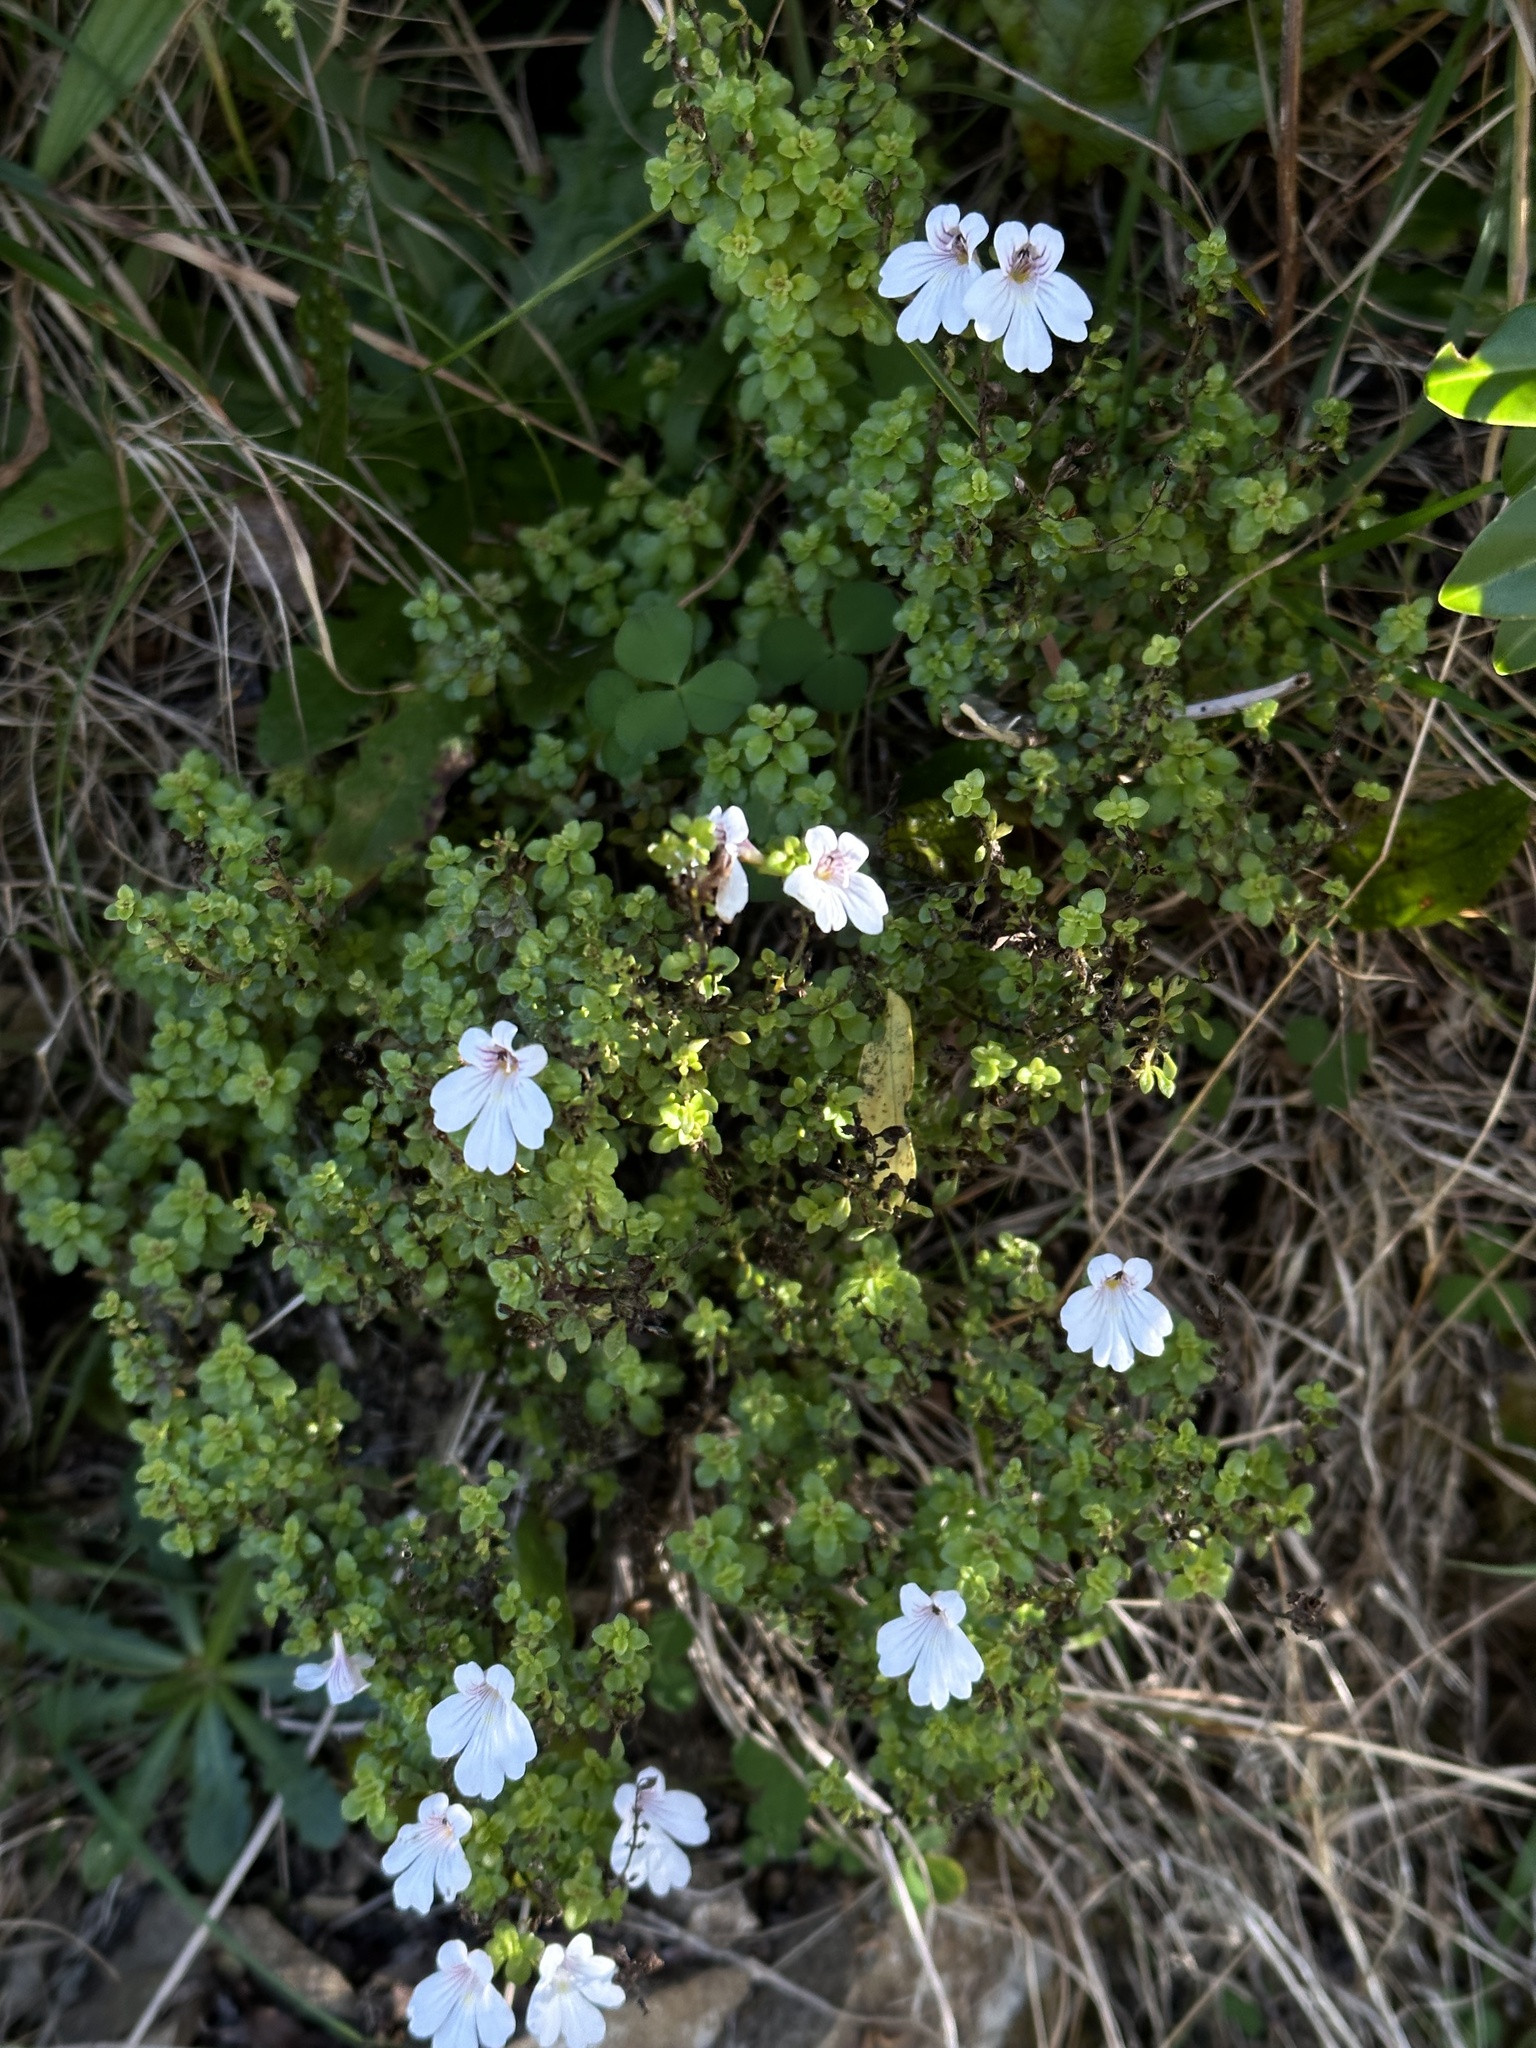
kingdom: Plantae
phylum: Tracheophyta
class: Magnoliopsida
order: Lamiales
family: Orobanchaceae
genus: Euphrasia
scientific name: Euphrasia cuneata
